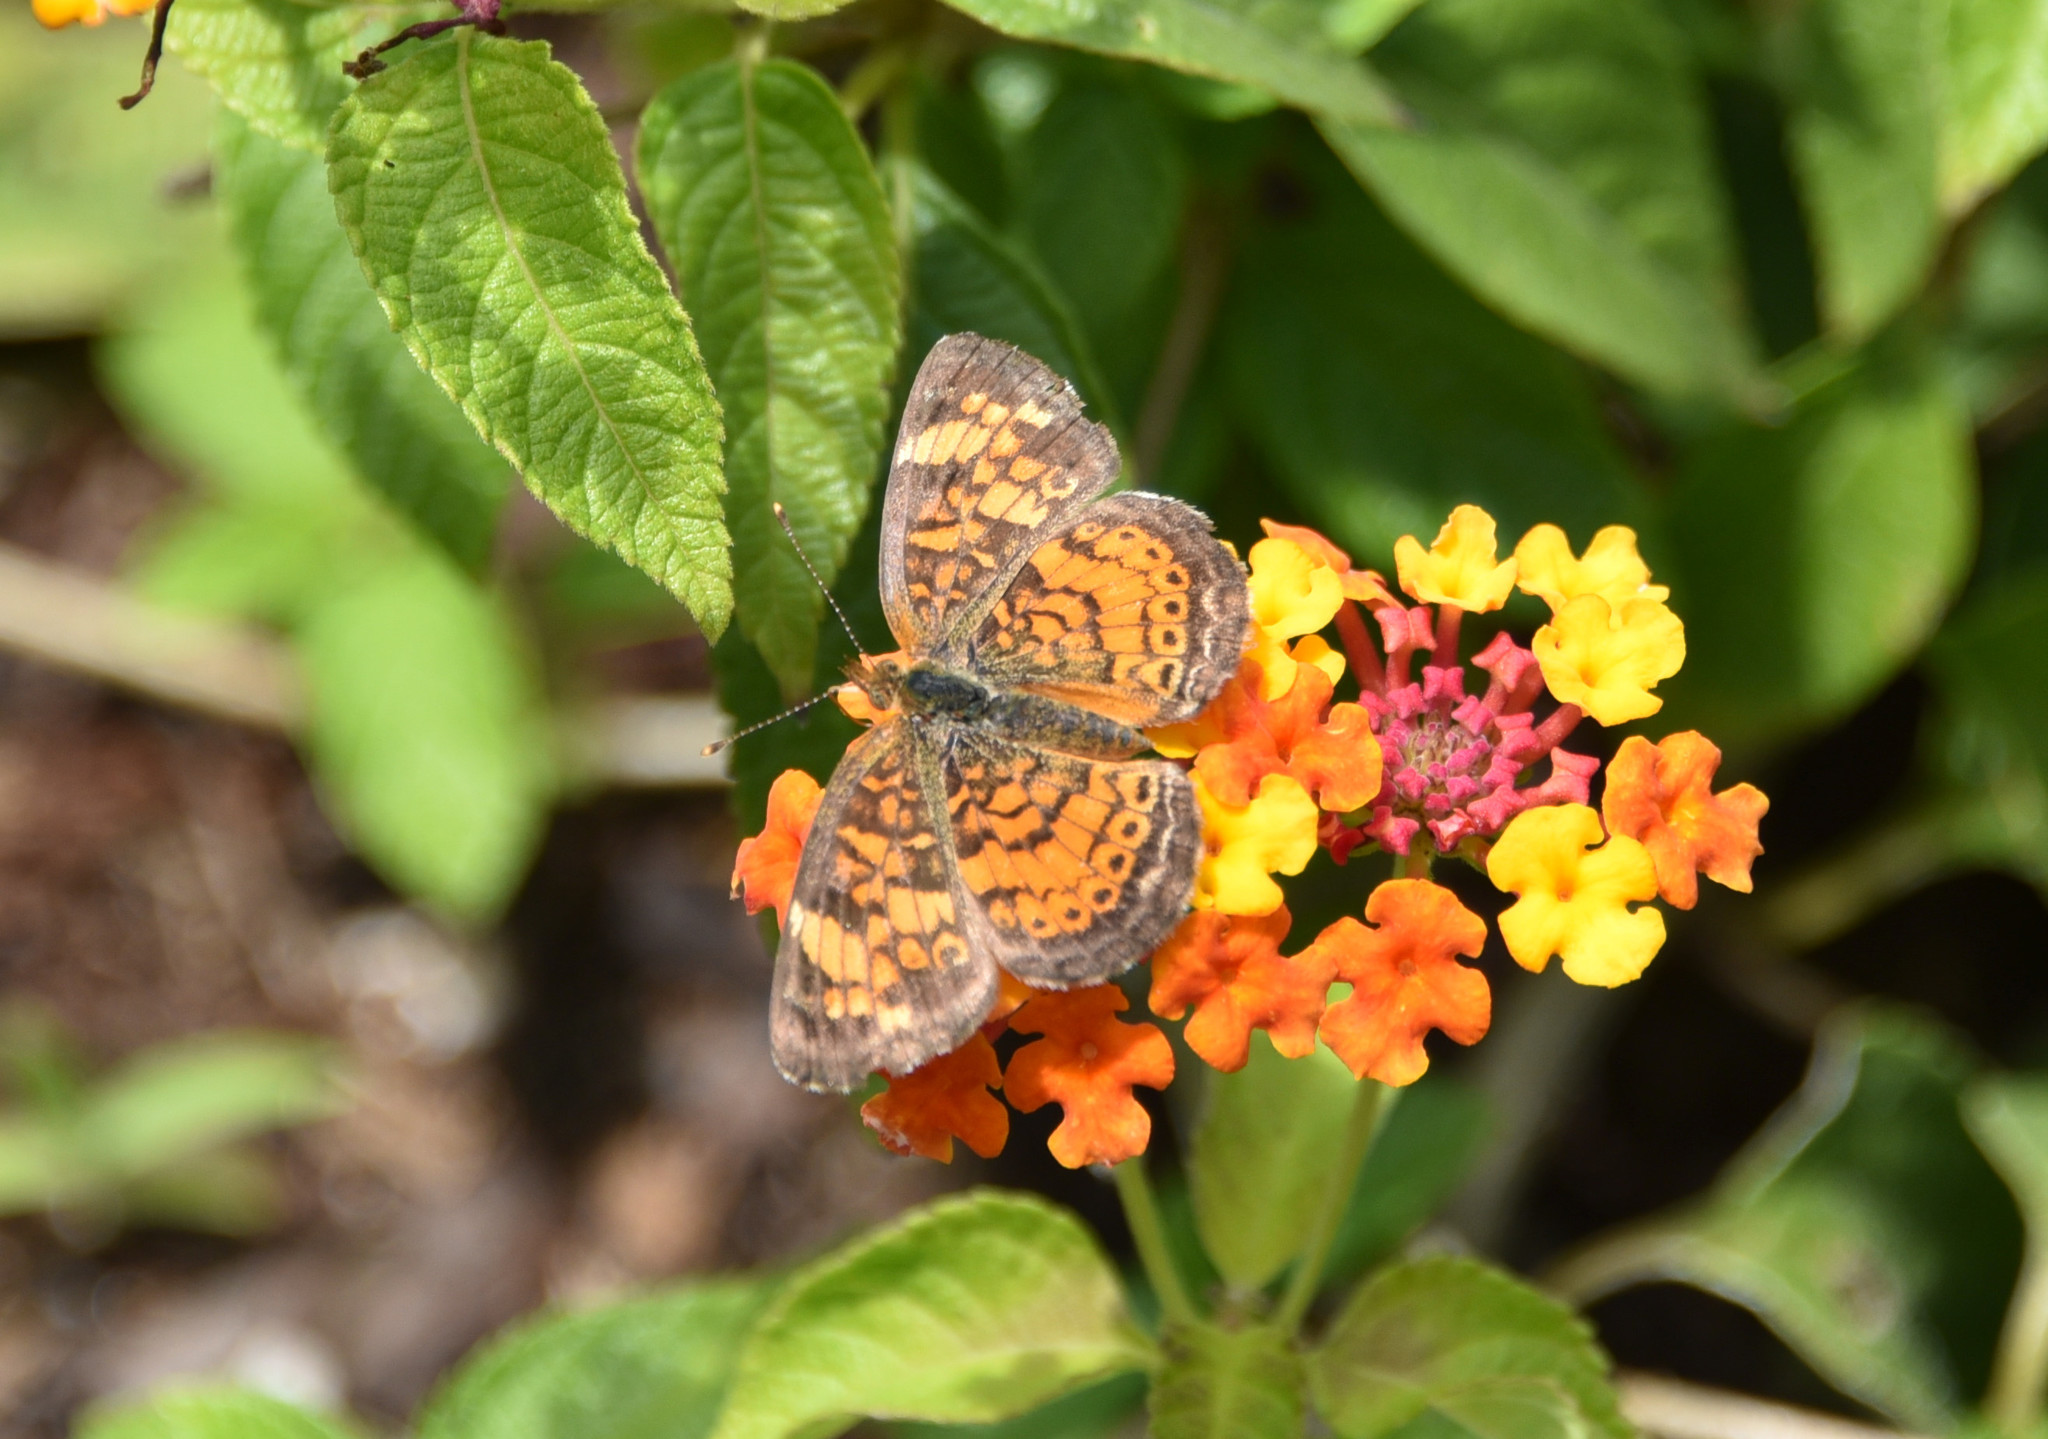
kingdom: Animalia
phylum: Arthropoda
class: Insecta
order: Lepidoptera
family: Nymphalidae
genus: Phyciodes
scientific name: Phyciodes tharos
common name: Pearl crescent
